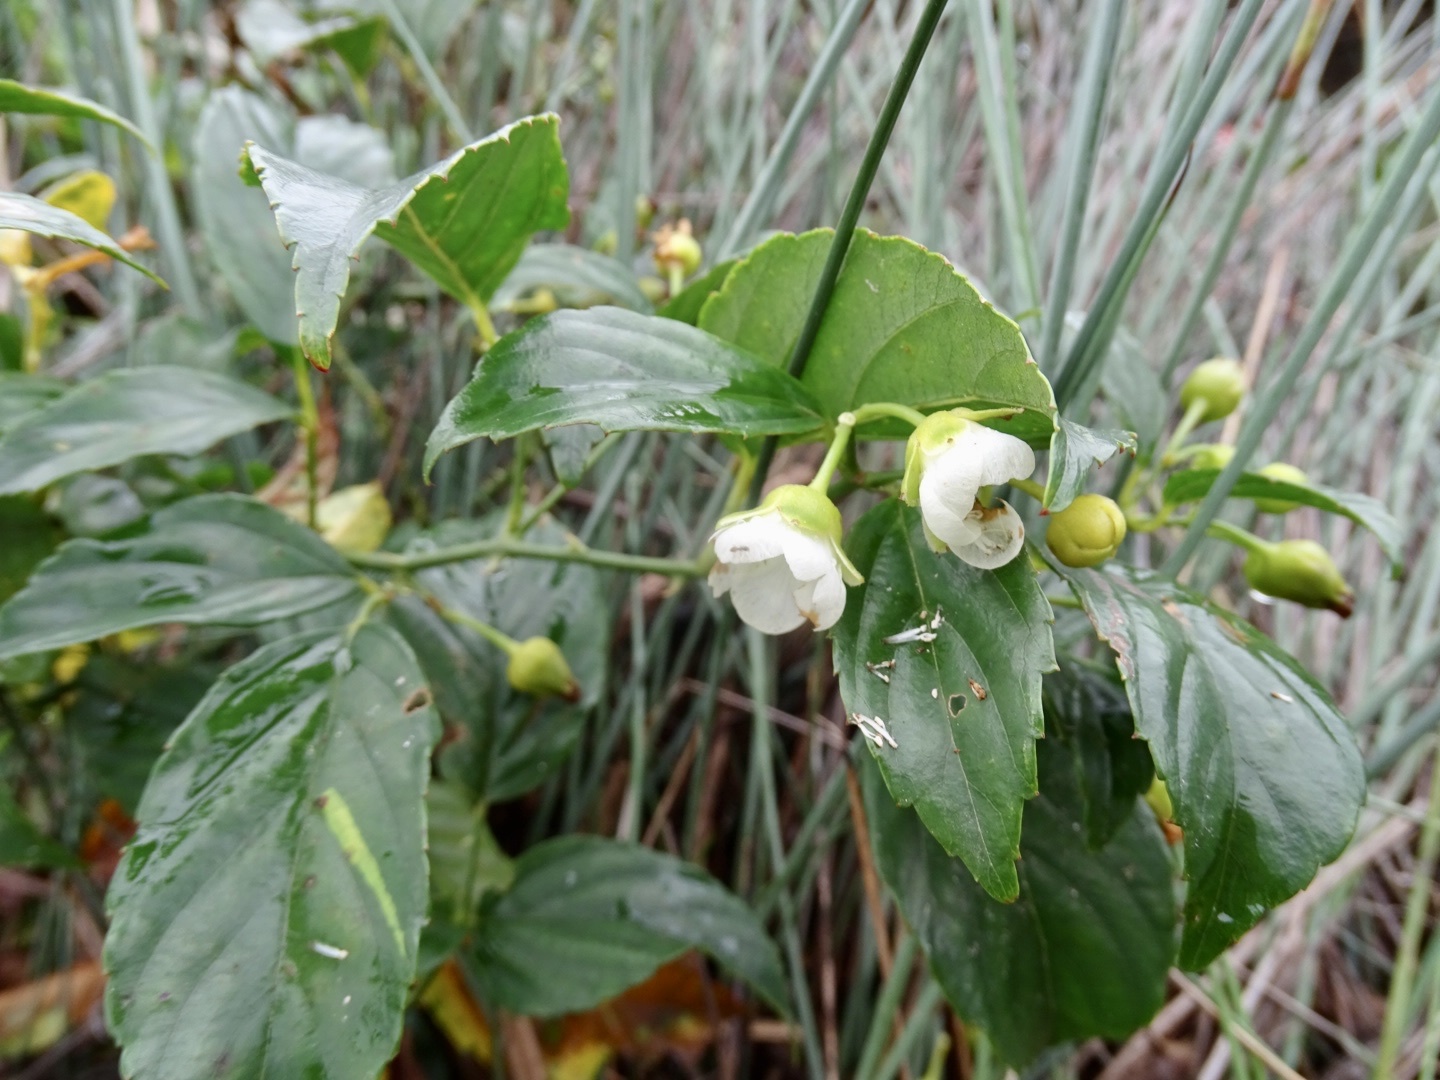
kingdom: Plantae
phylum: Tracheophyta
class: Magnoliopsida
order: Rosales
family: Rosaceae
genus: Rubus
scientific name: Rubus leucanthus
